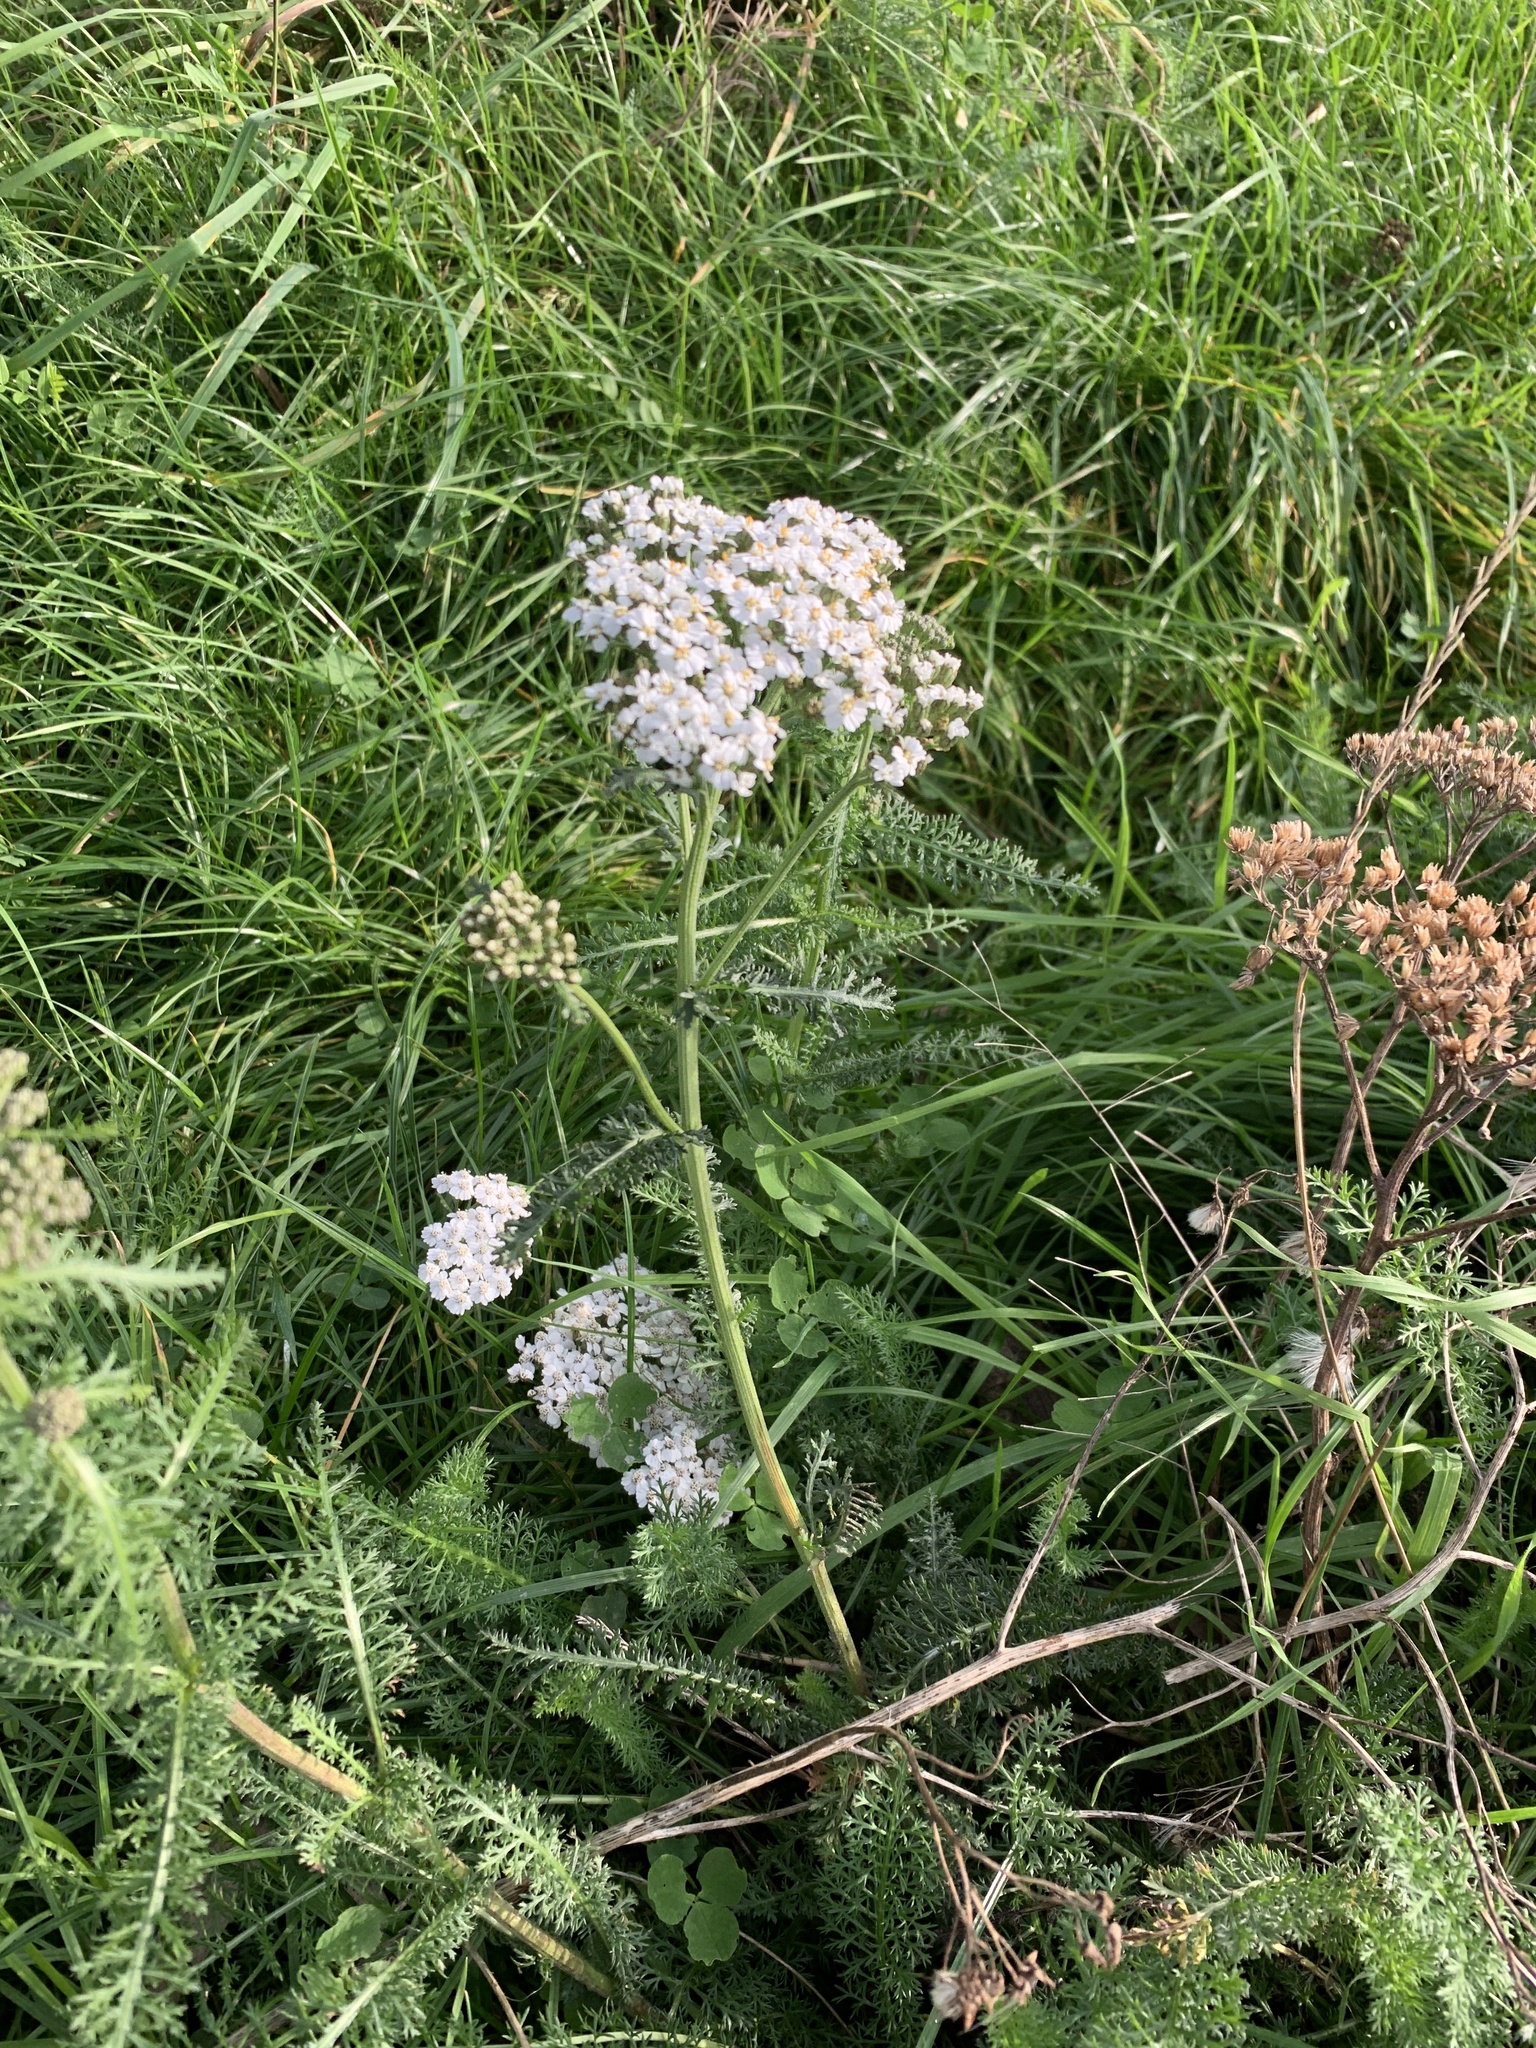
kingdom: Plantae
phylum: Tracheophyta
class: Magnoliopsida
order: Asterales
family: Asteraceae
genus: Achillea
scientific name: Achillea millefolium
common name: Yarrow
